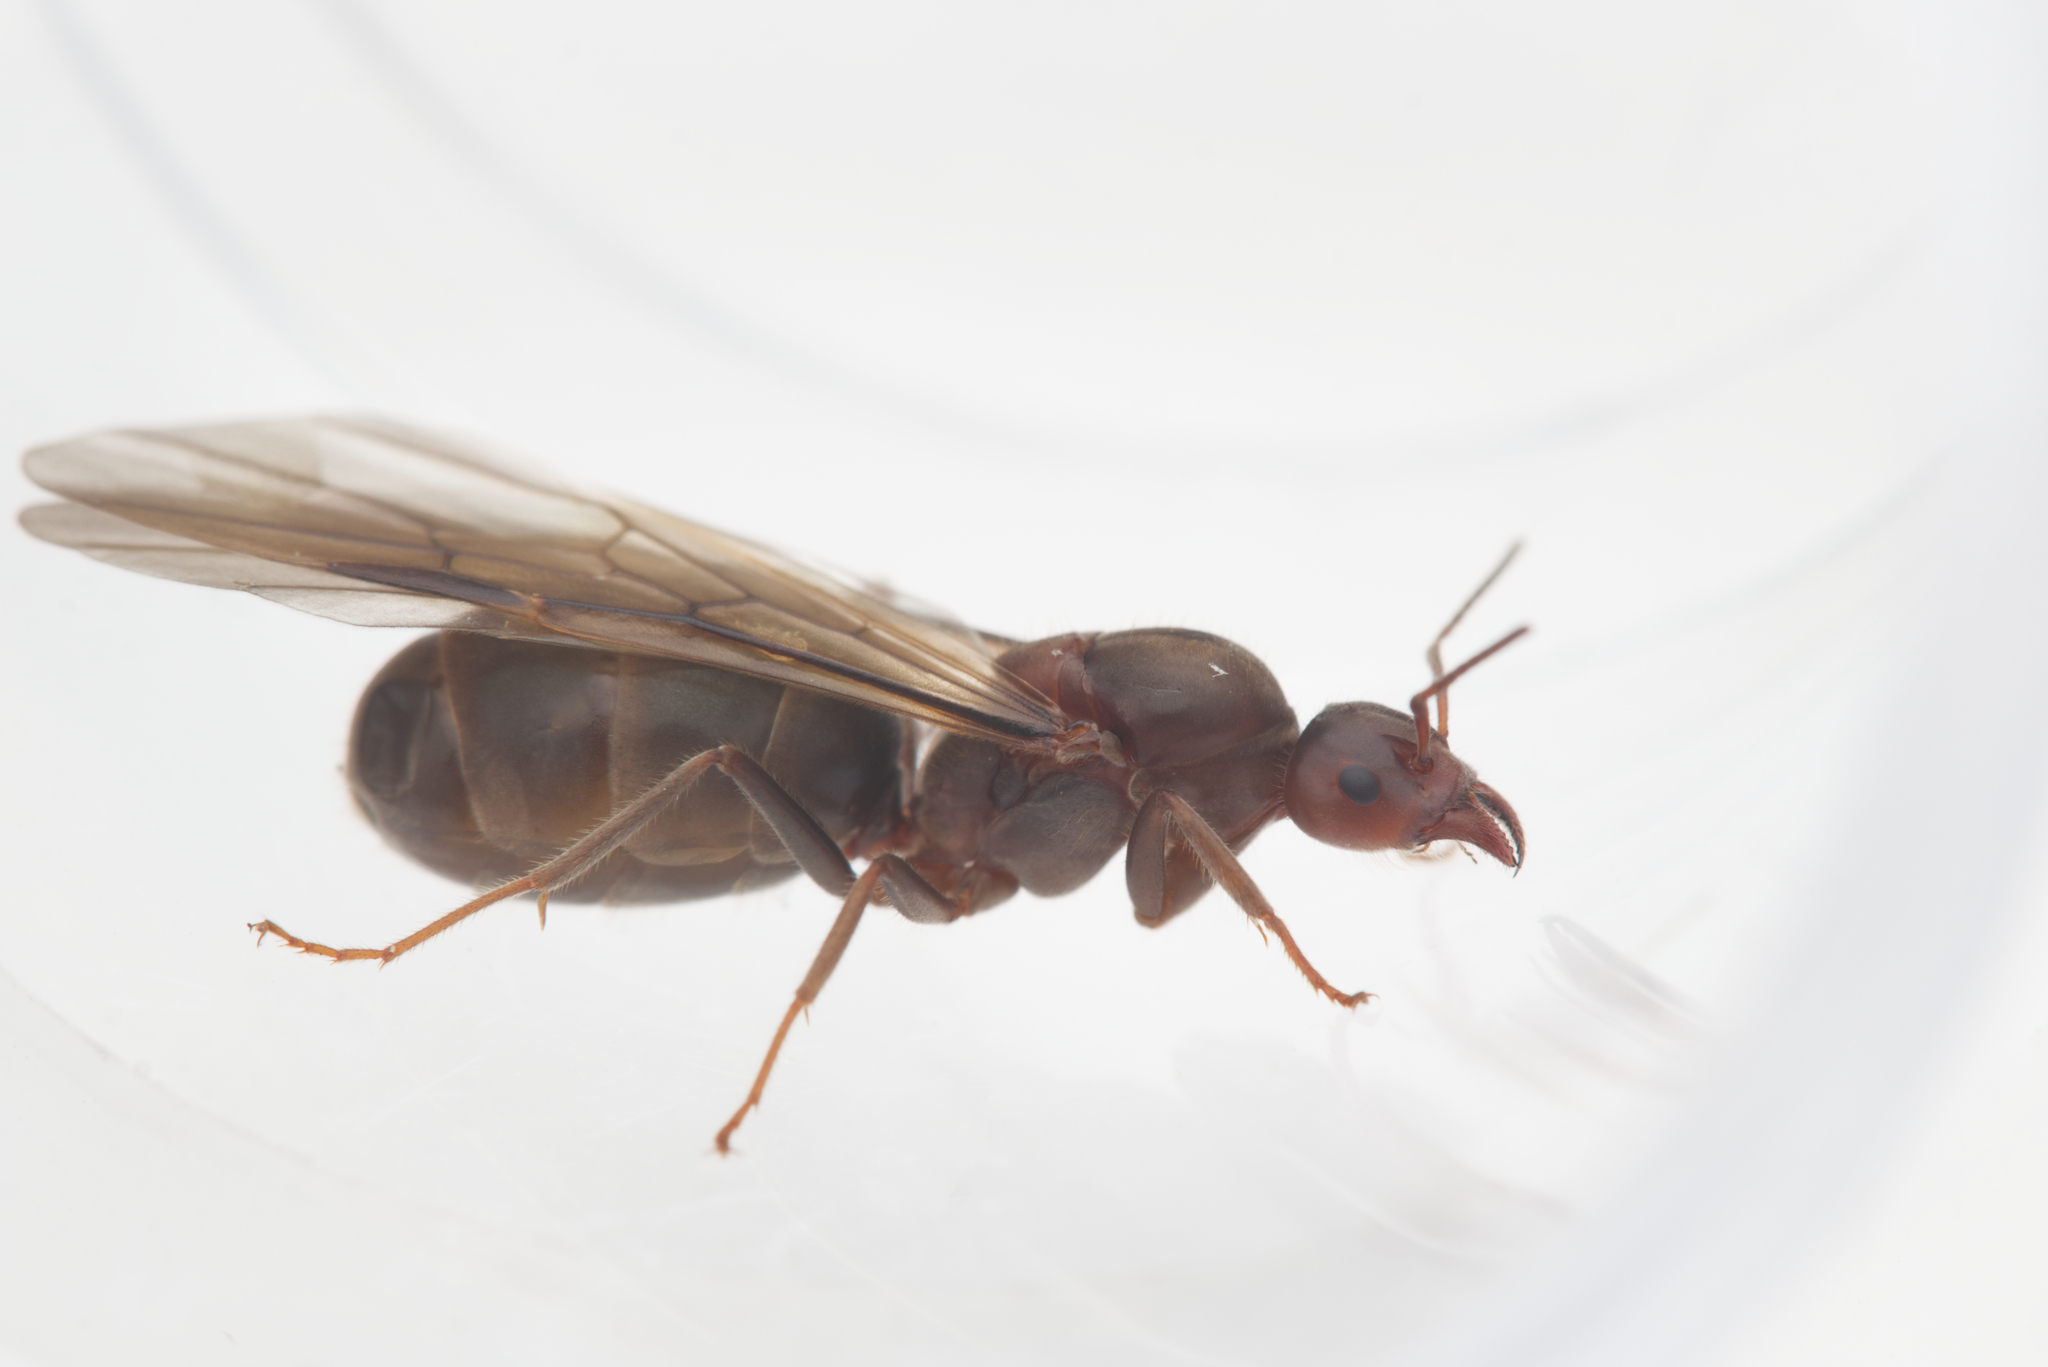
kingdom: Animalia
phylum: Arthropoda
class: Insecta
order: Hymenoptera
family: Formicidae
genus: Iridomyrmex
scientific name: Iridomyrmex discors
